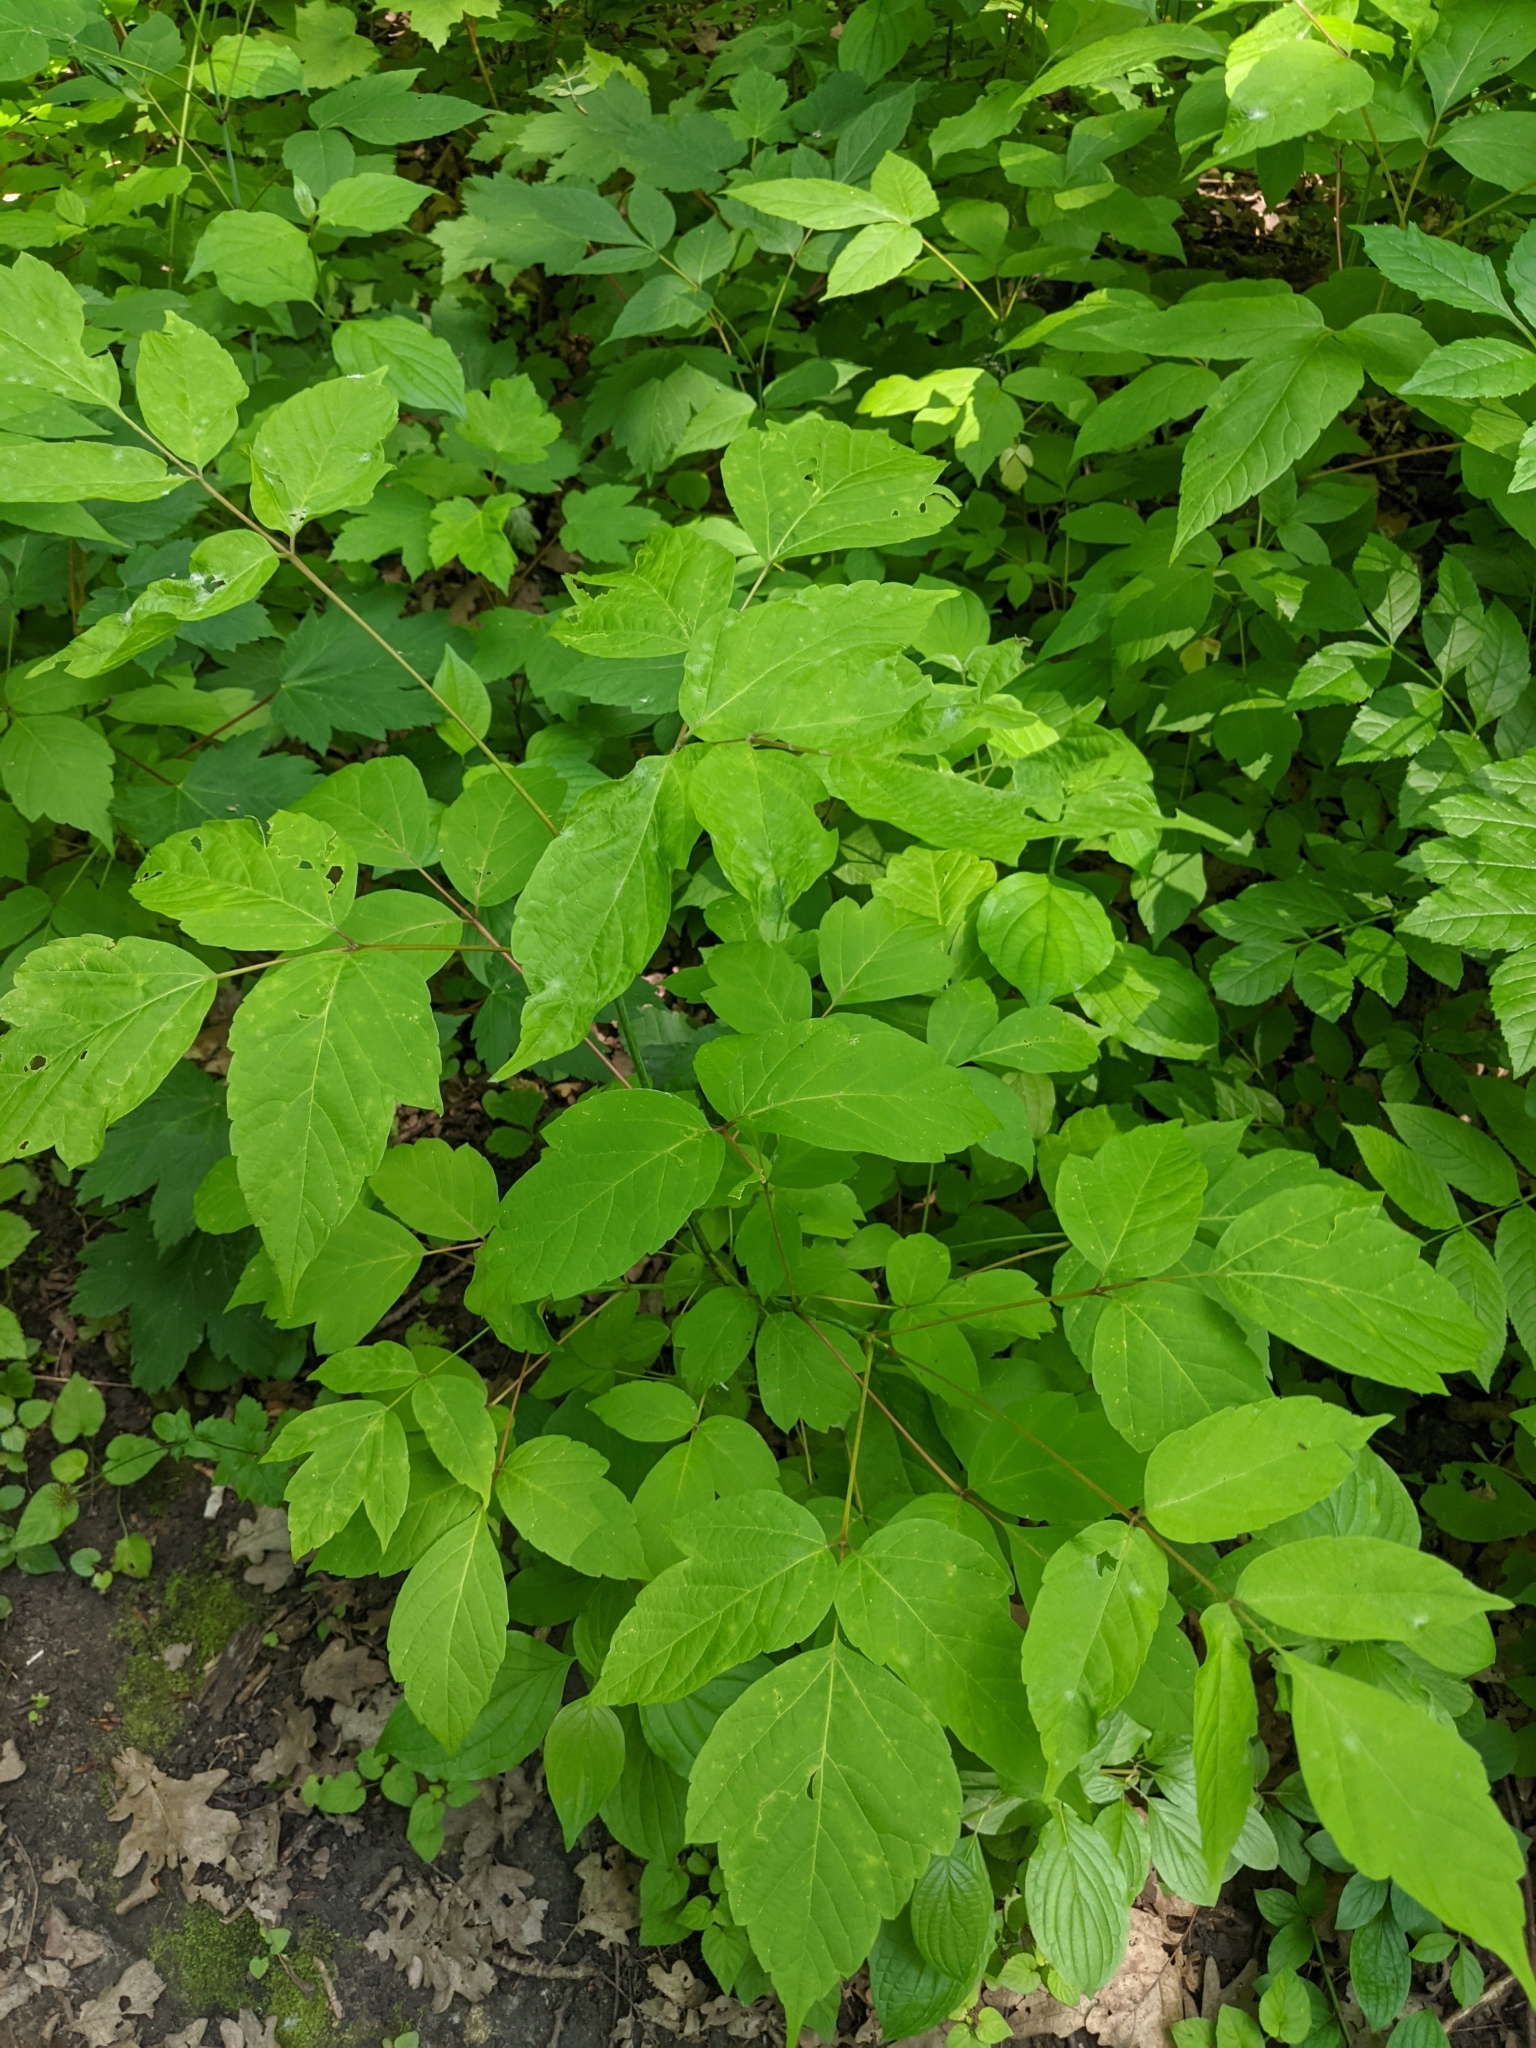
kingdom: Plantae
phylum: Tracheophyta
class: Magnoliopsida
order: Sapindales
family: Sapindaceae
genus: Acer
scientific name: Acer negundo
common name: Ashleaf maple
